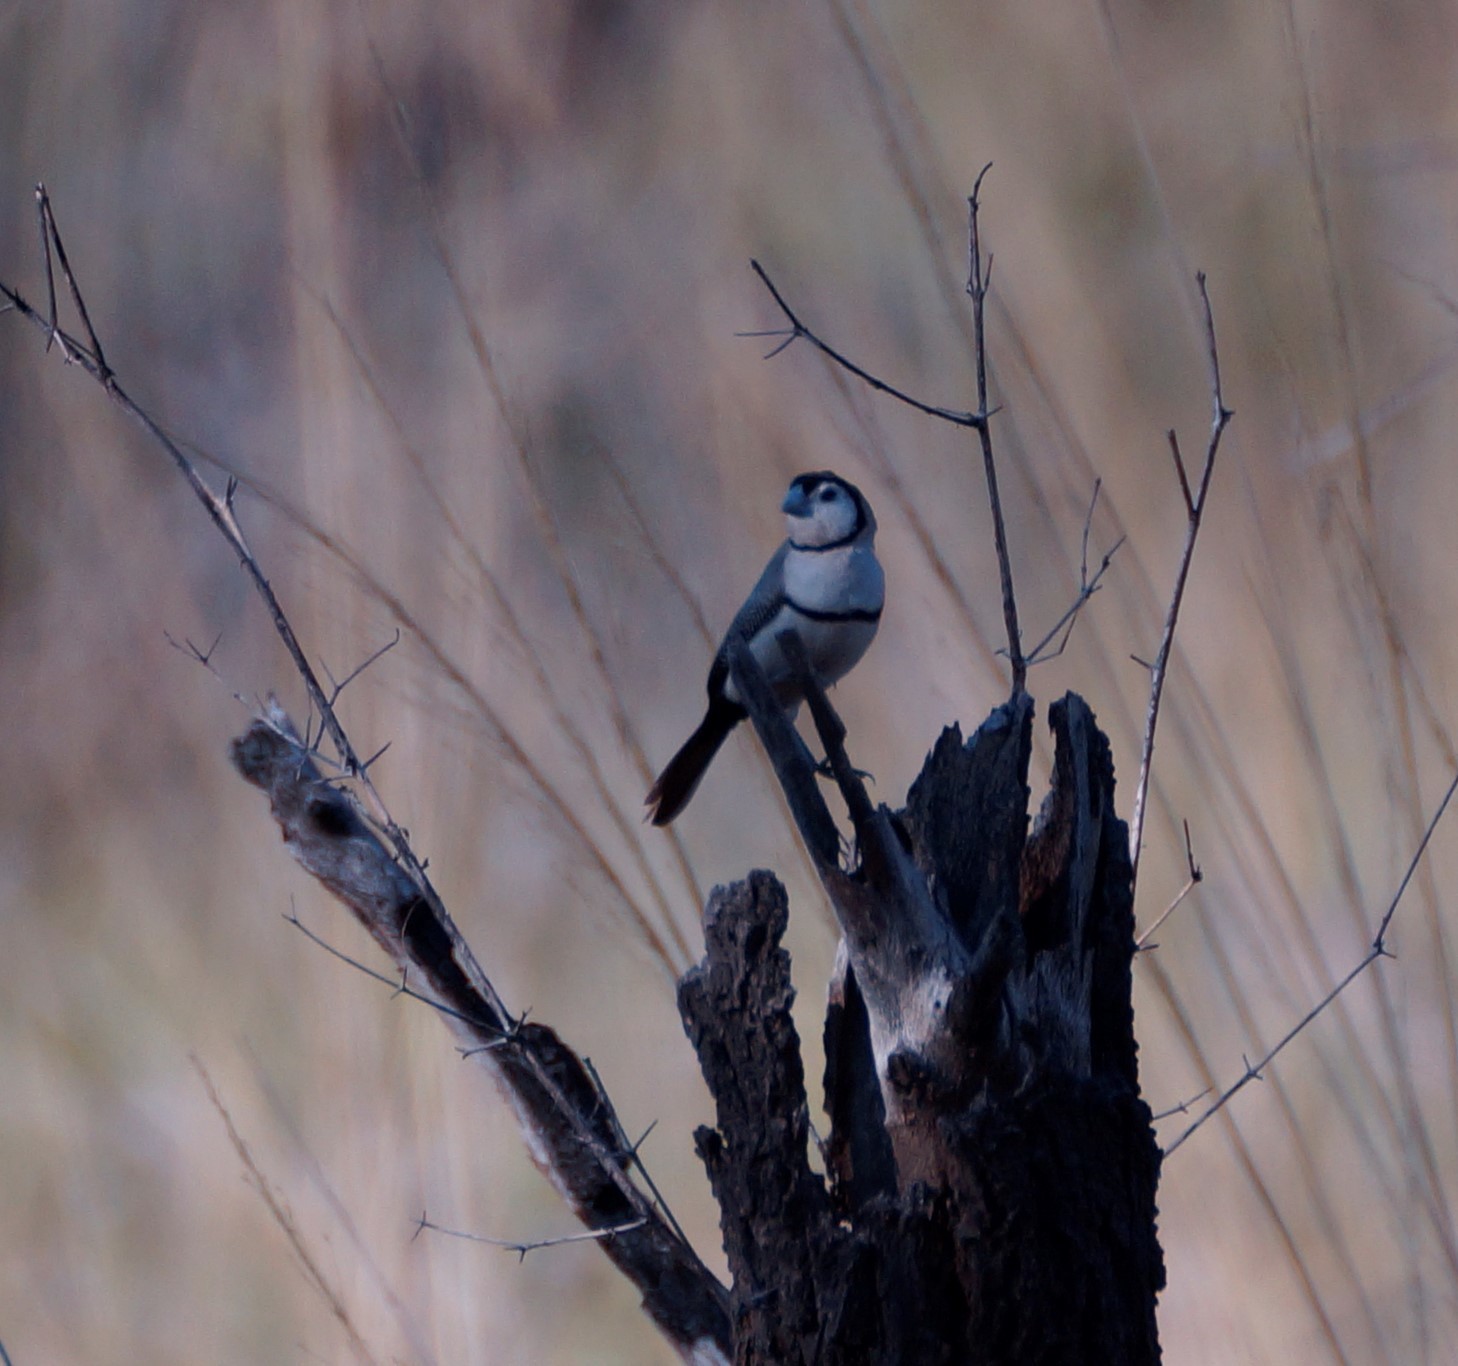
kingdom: Animalia
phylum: Chordata
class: Aves
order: Passeriformes
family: Estrildidae
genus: Taeniopygia
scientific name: Taeniopygia bichenovii
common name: Double-barred finch
